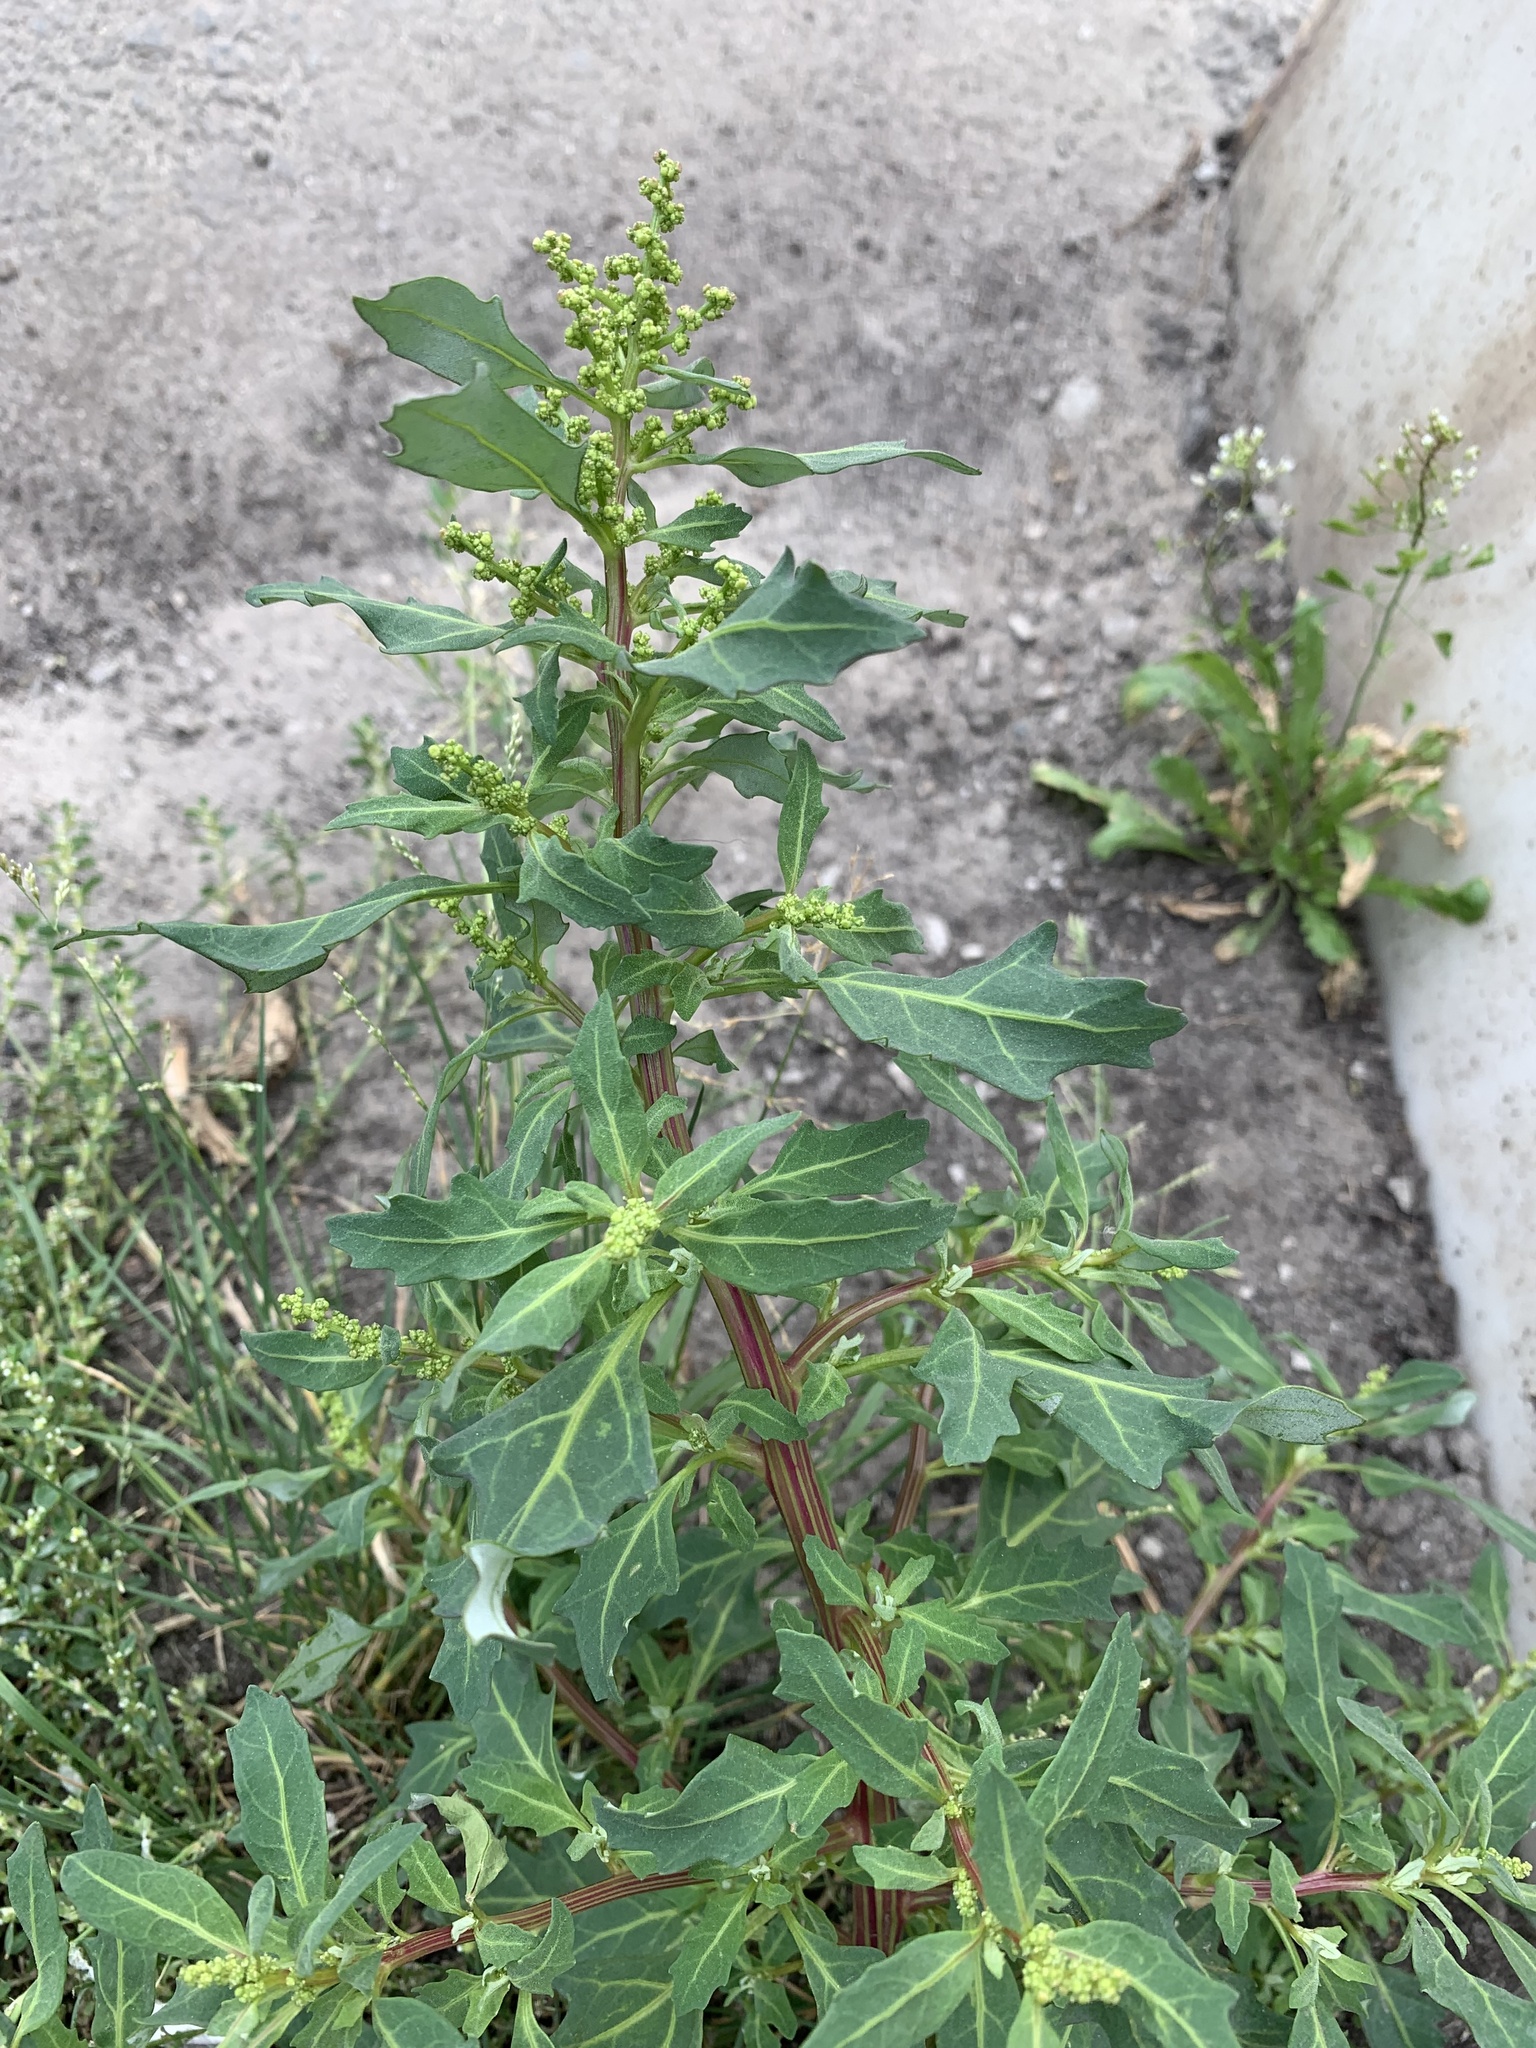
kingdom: Plantae
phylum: Tracheophyta
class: Magnoliopsida
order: Caryophyllales
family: Amaranthaceae
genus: Oxybasis
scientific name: Oxybasis glauca
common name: Glaucous goosefoot
